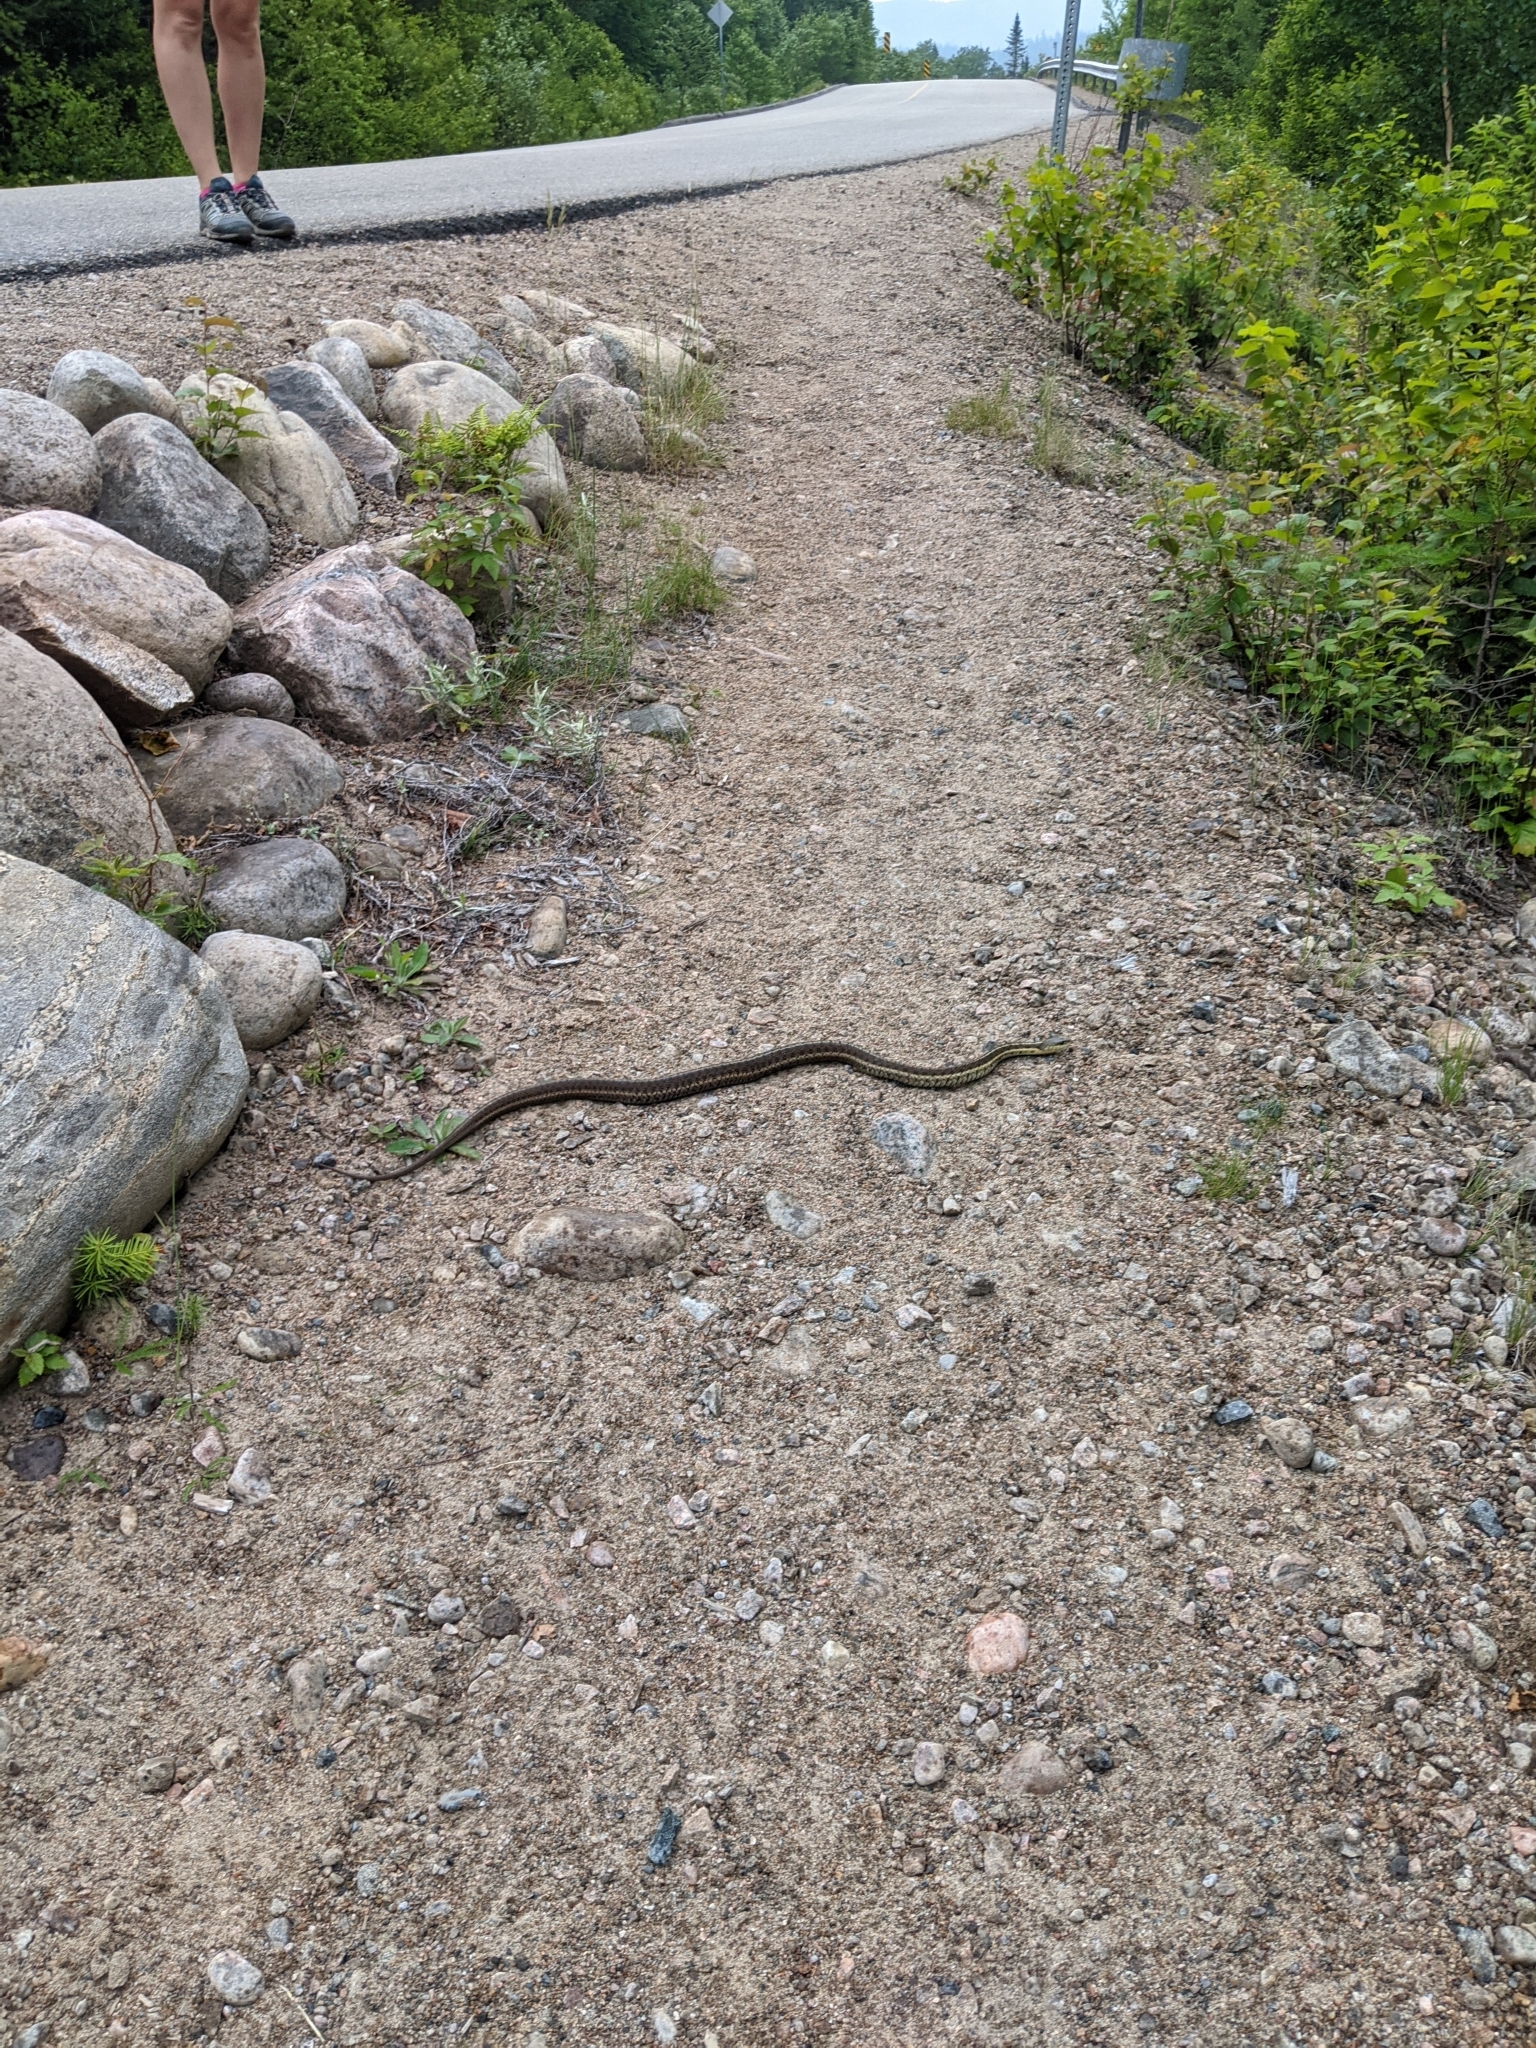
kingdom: Animalia
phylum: Chordata
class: Squamata
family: Colubridae
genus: Thamnophis
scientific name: Thamnophis sirtalis
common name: Common garter snake
